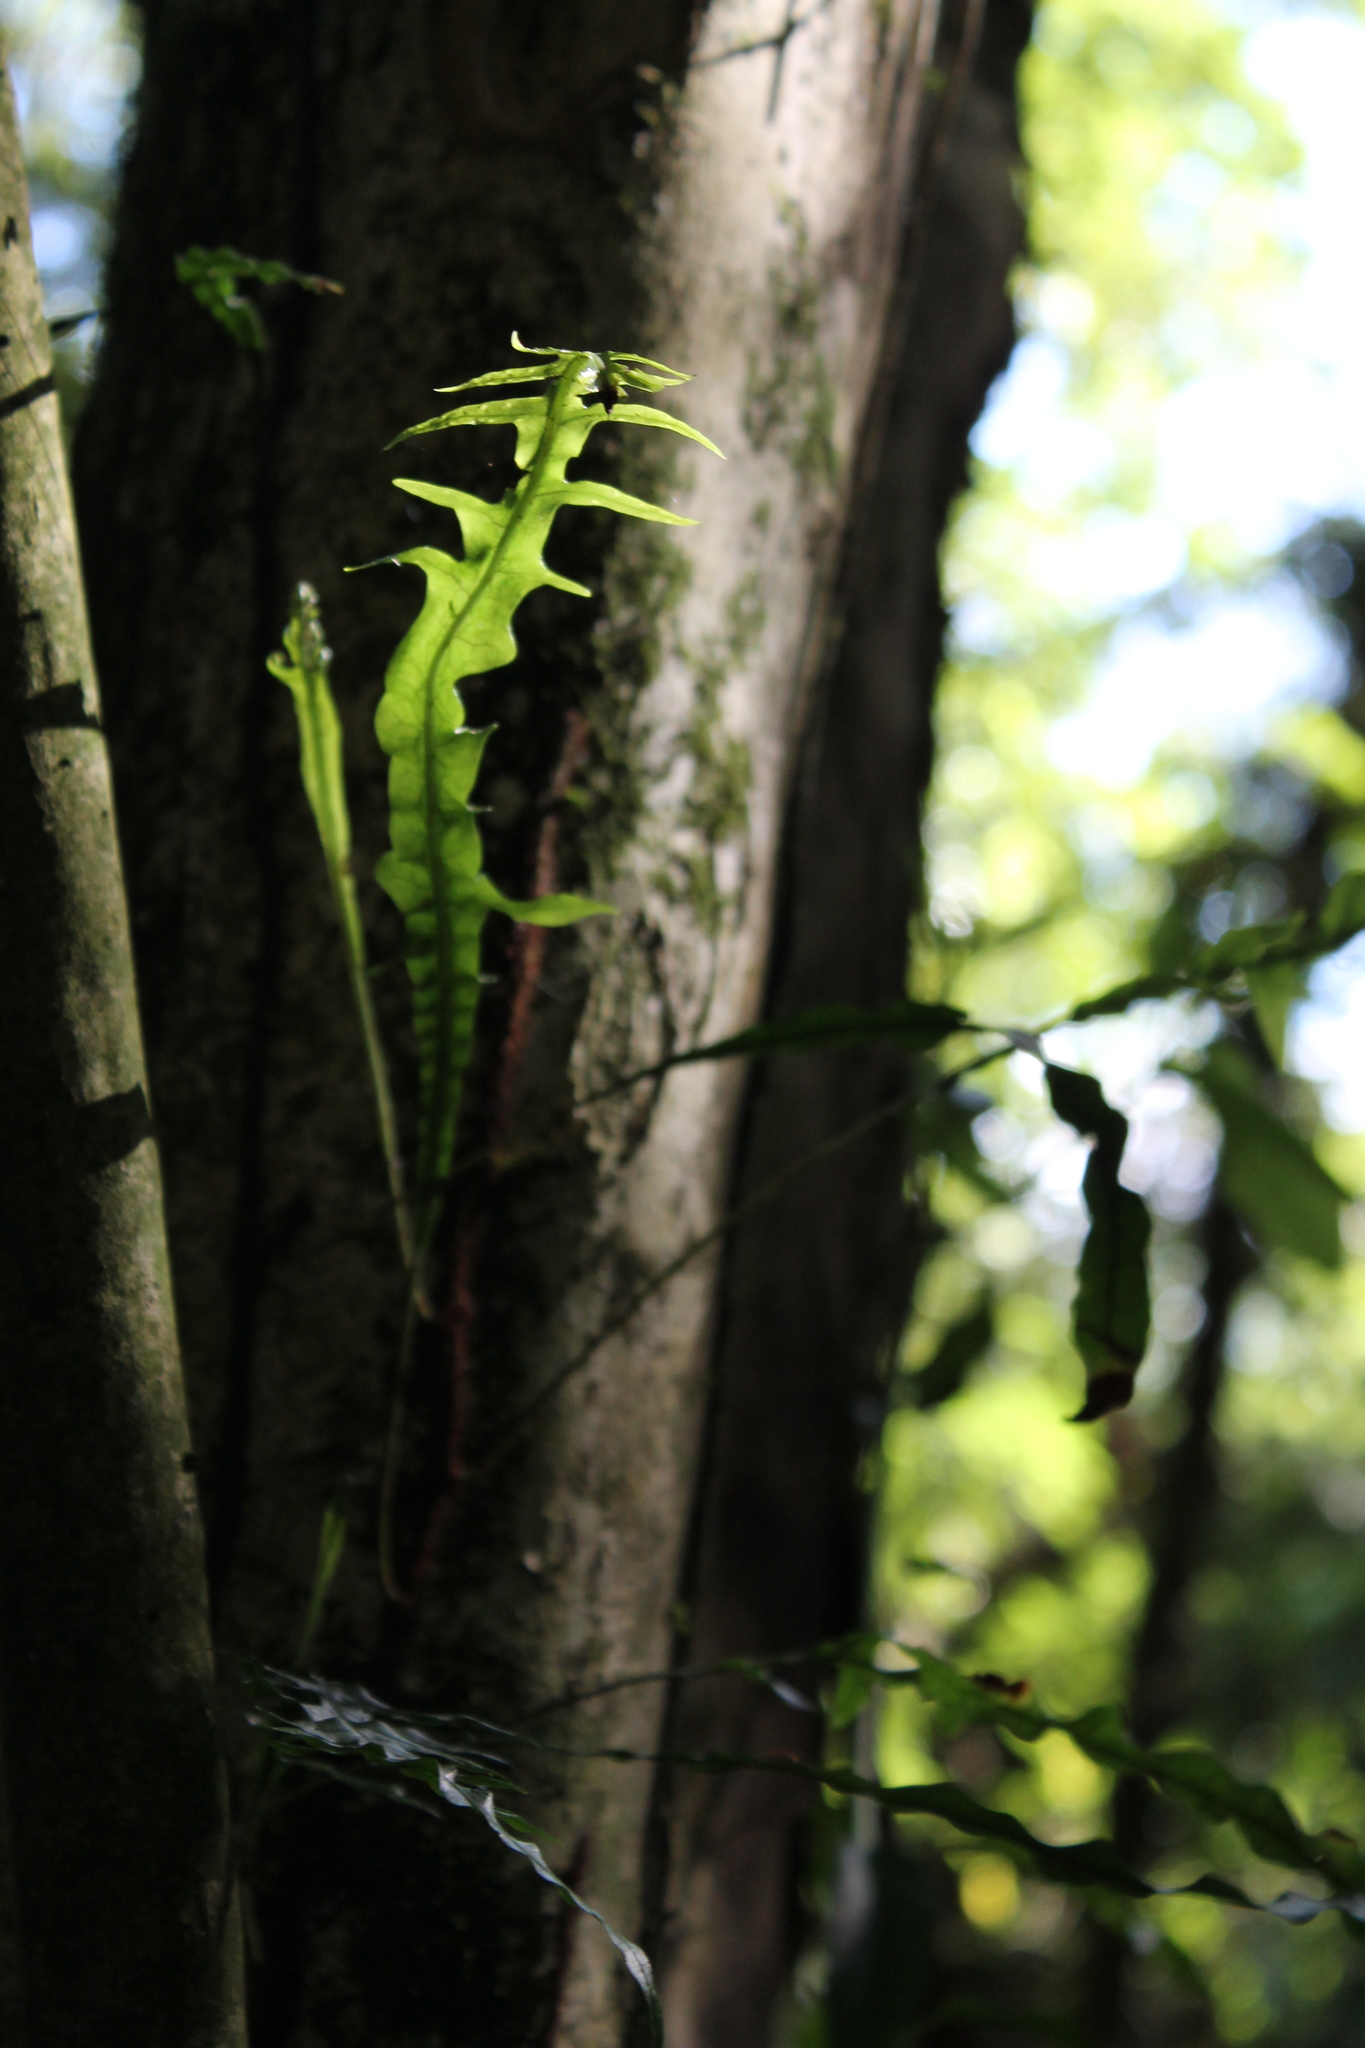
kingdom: Plantae
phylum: Tracheophyta
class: Polypodiopsida
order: Polypodiales
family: Polypodiaceae
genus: Lecanopteris
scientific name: Lecanopteris scandens
